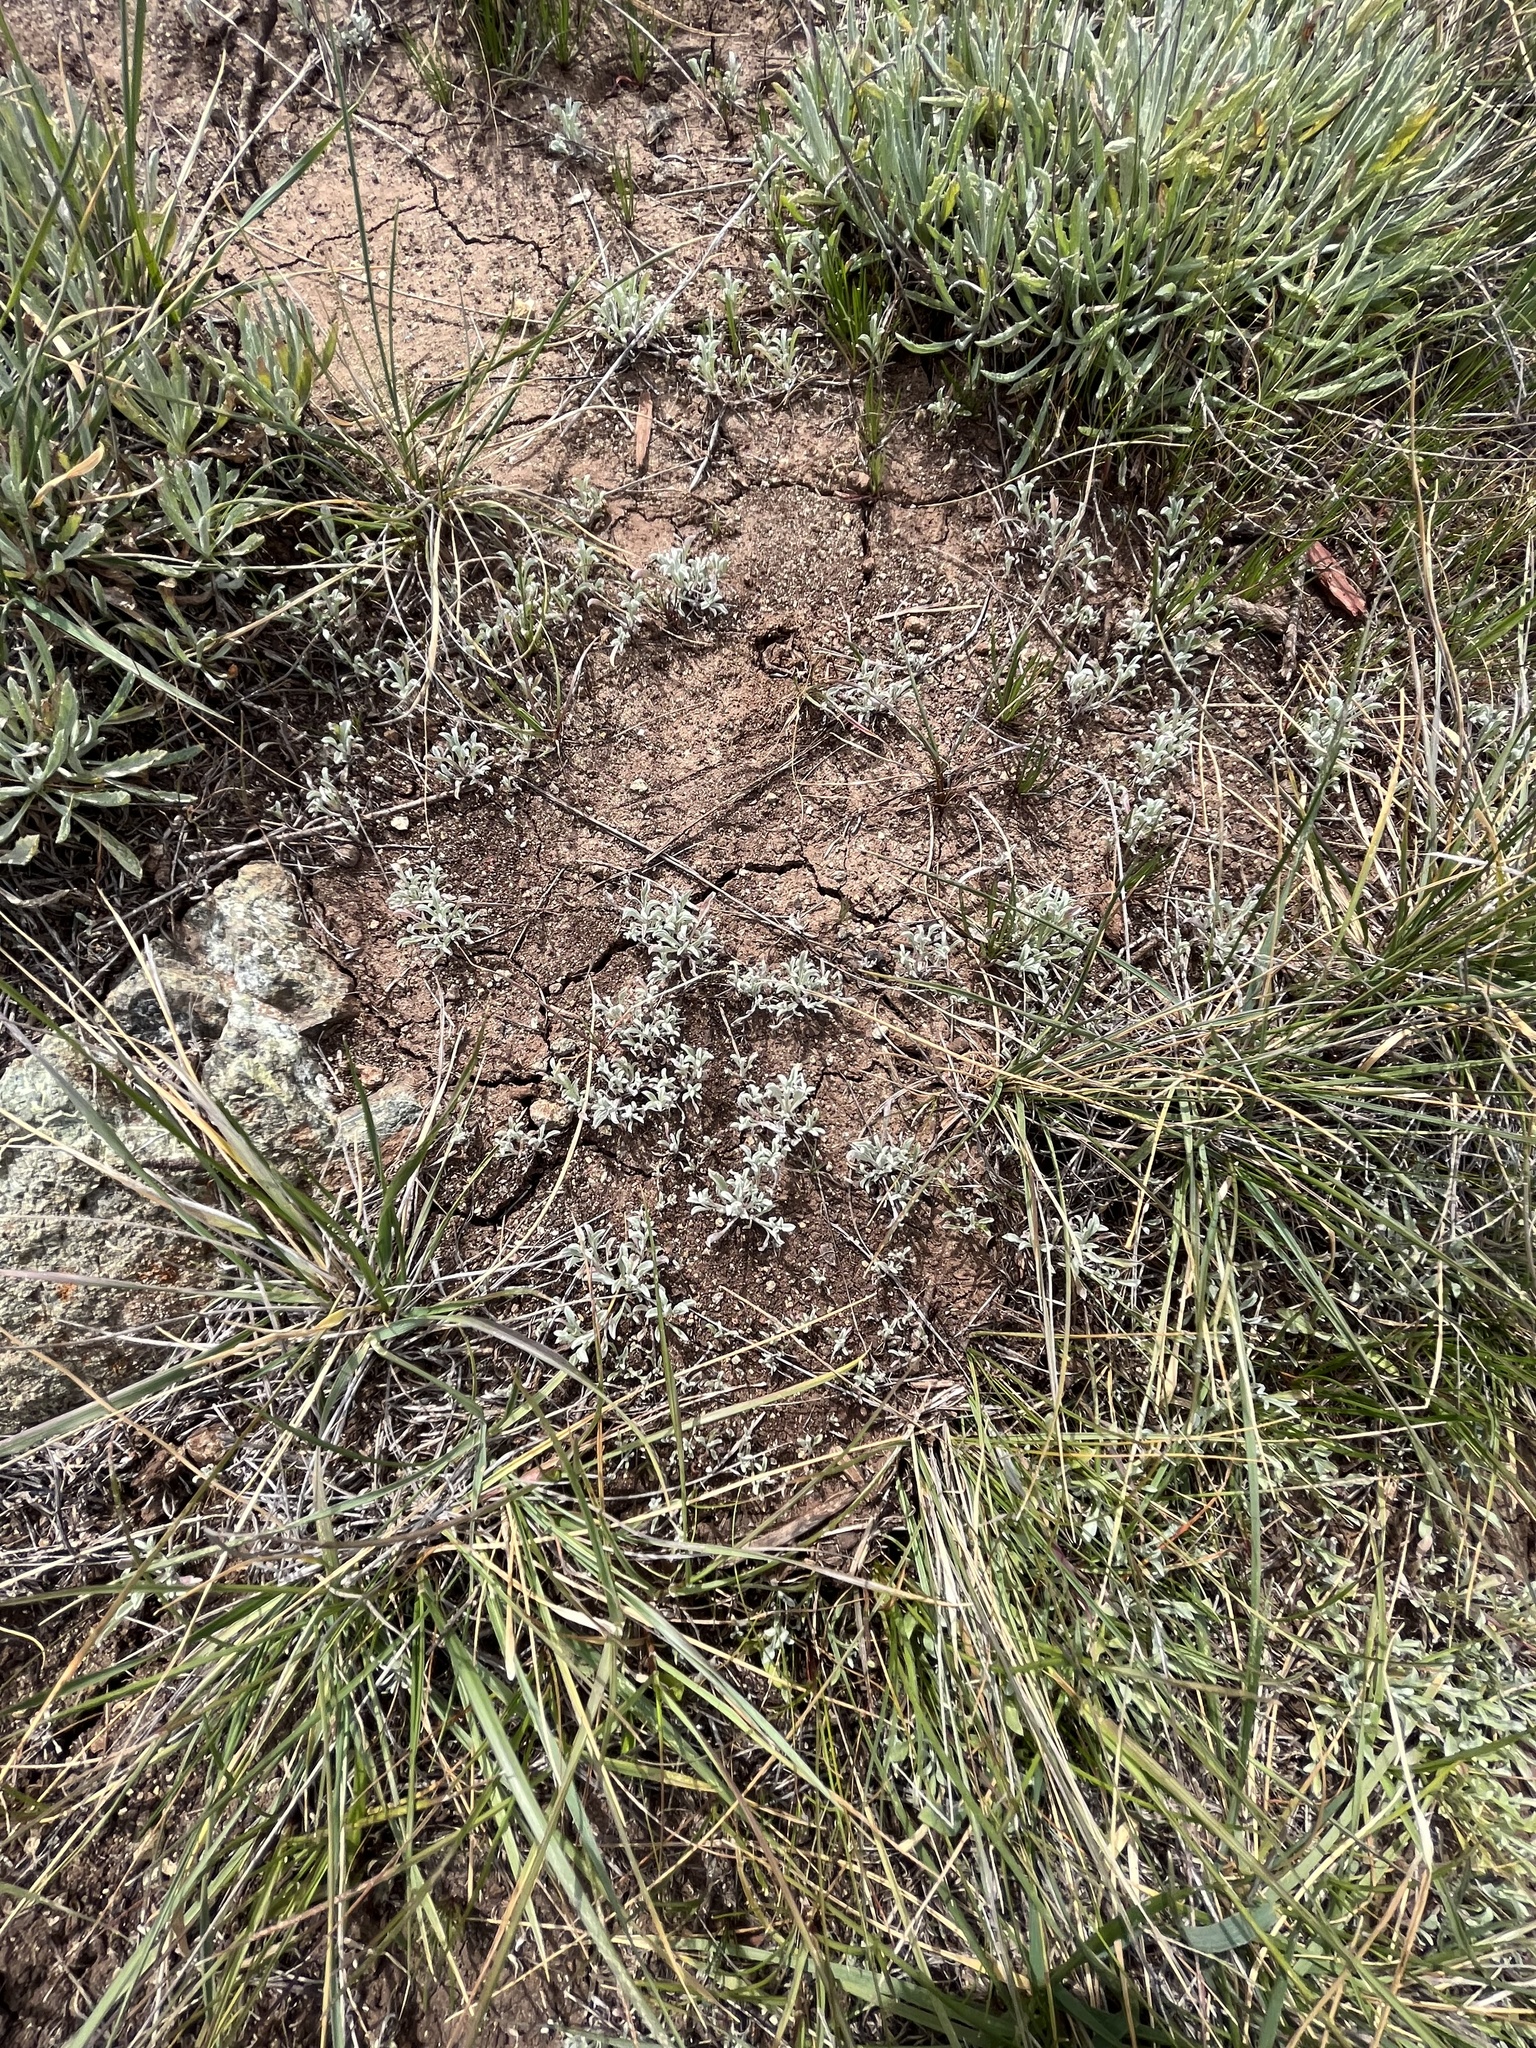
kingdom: Plantae
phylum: Tracheophyta
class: Magnoliopsida
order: Asterales
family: Asteraceae
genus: Hesperevax
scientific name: Hesperevax sparsiflora
